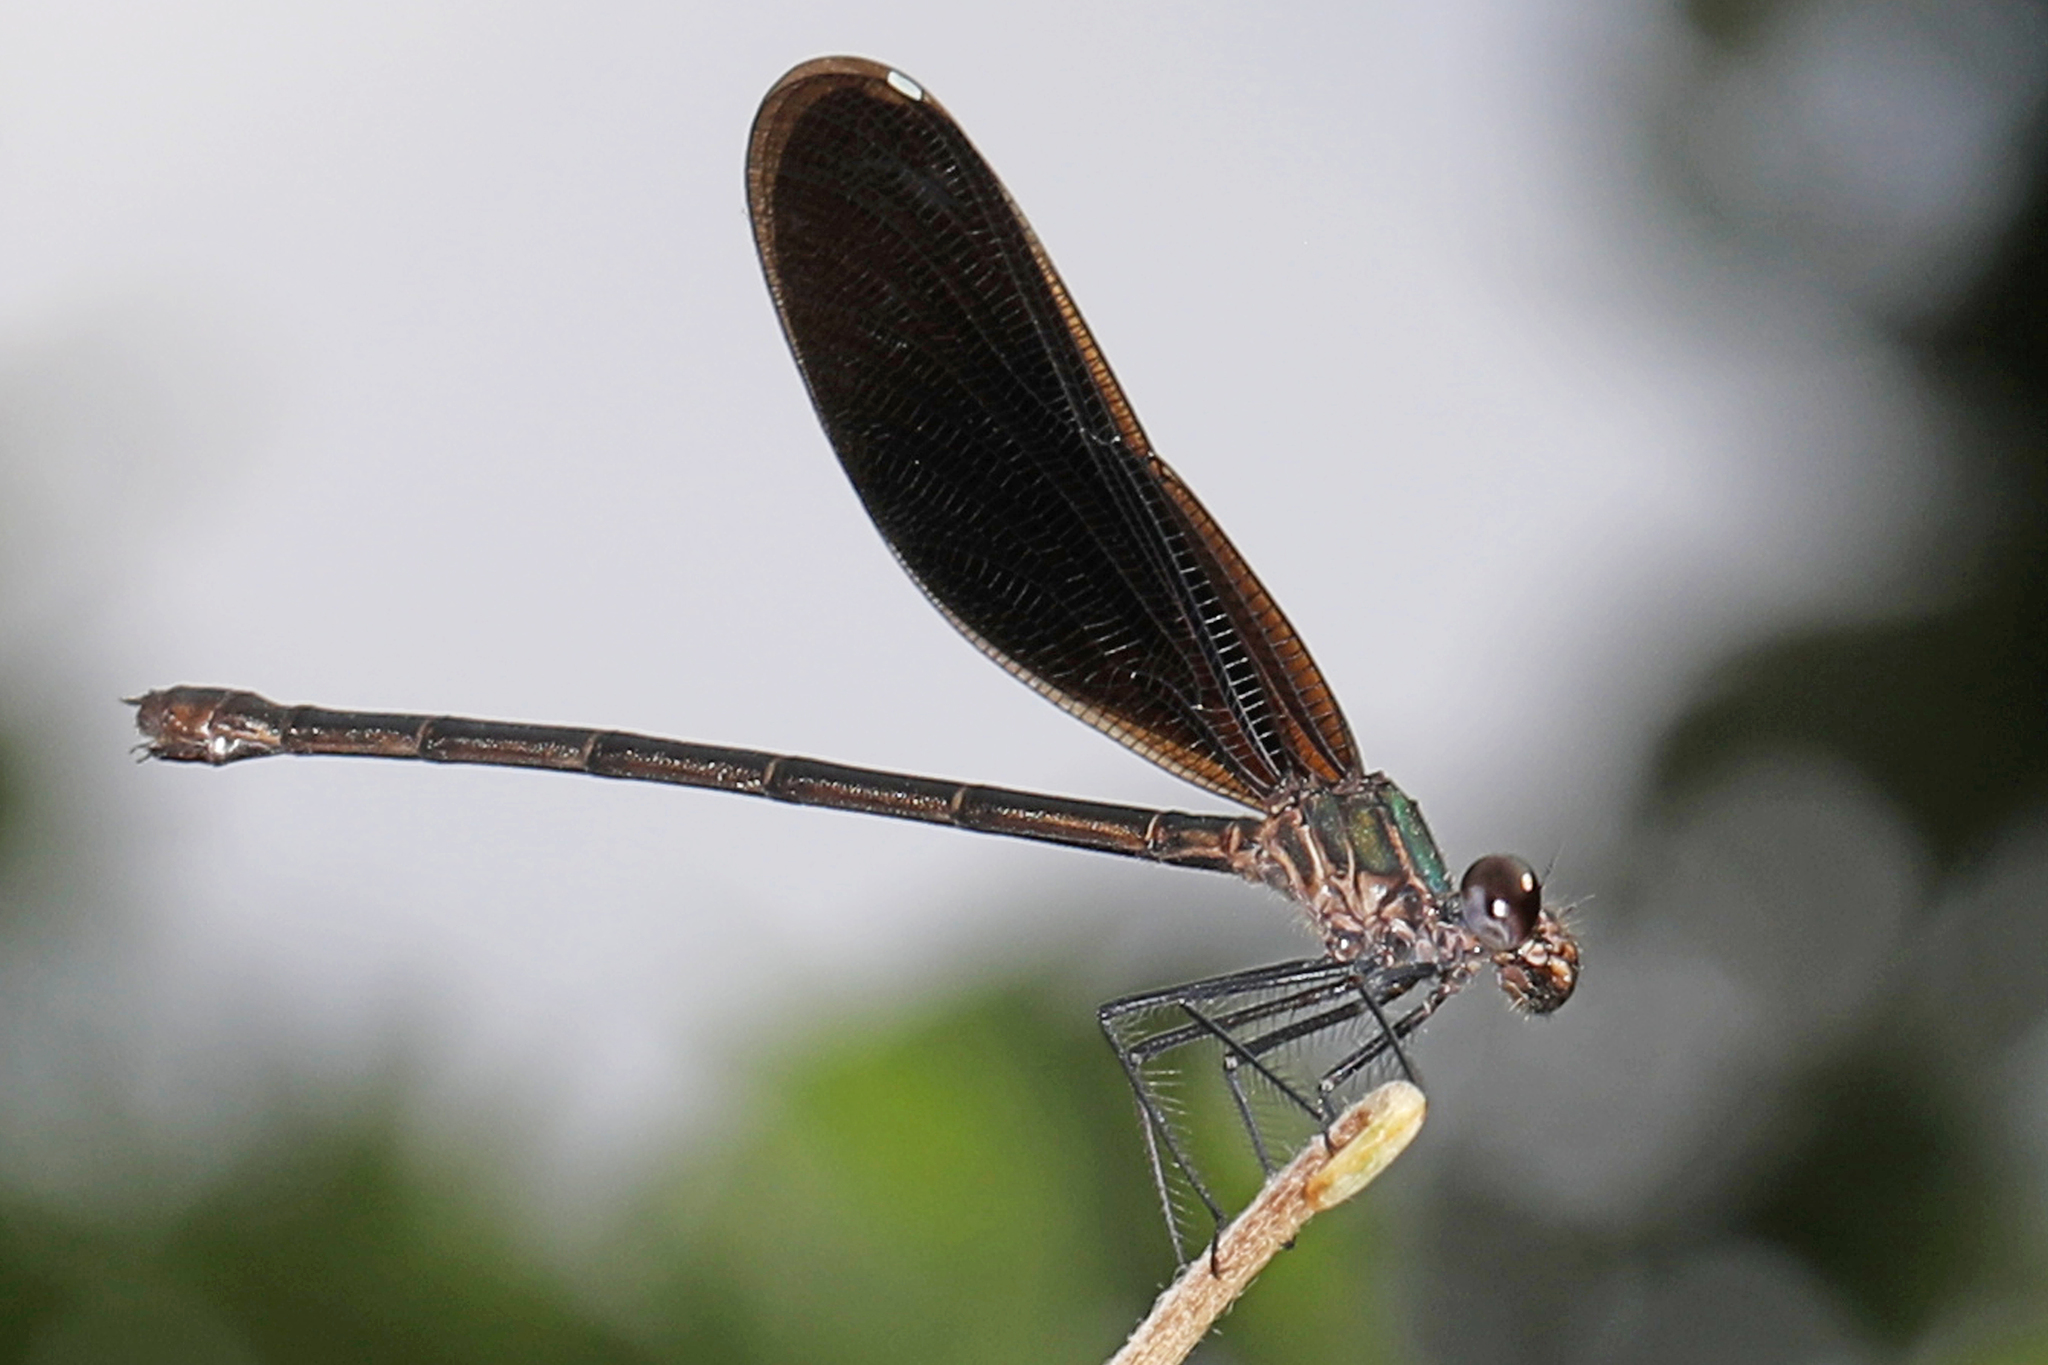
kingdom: Animalia
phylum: Arthropoda
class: Insecta
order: Odonata
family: Calopterygidae
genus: Hetaerina
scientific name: Hetaerina titia
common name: Smoky rubyspot
